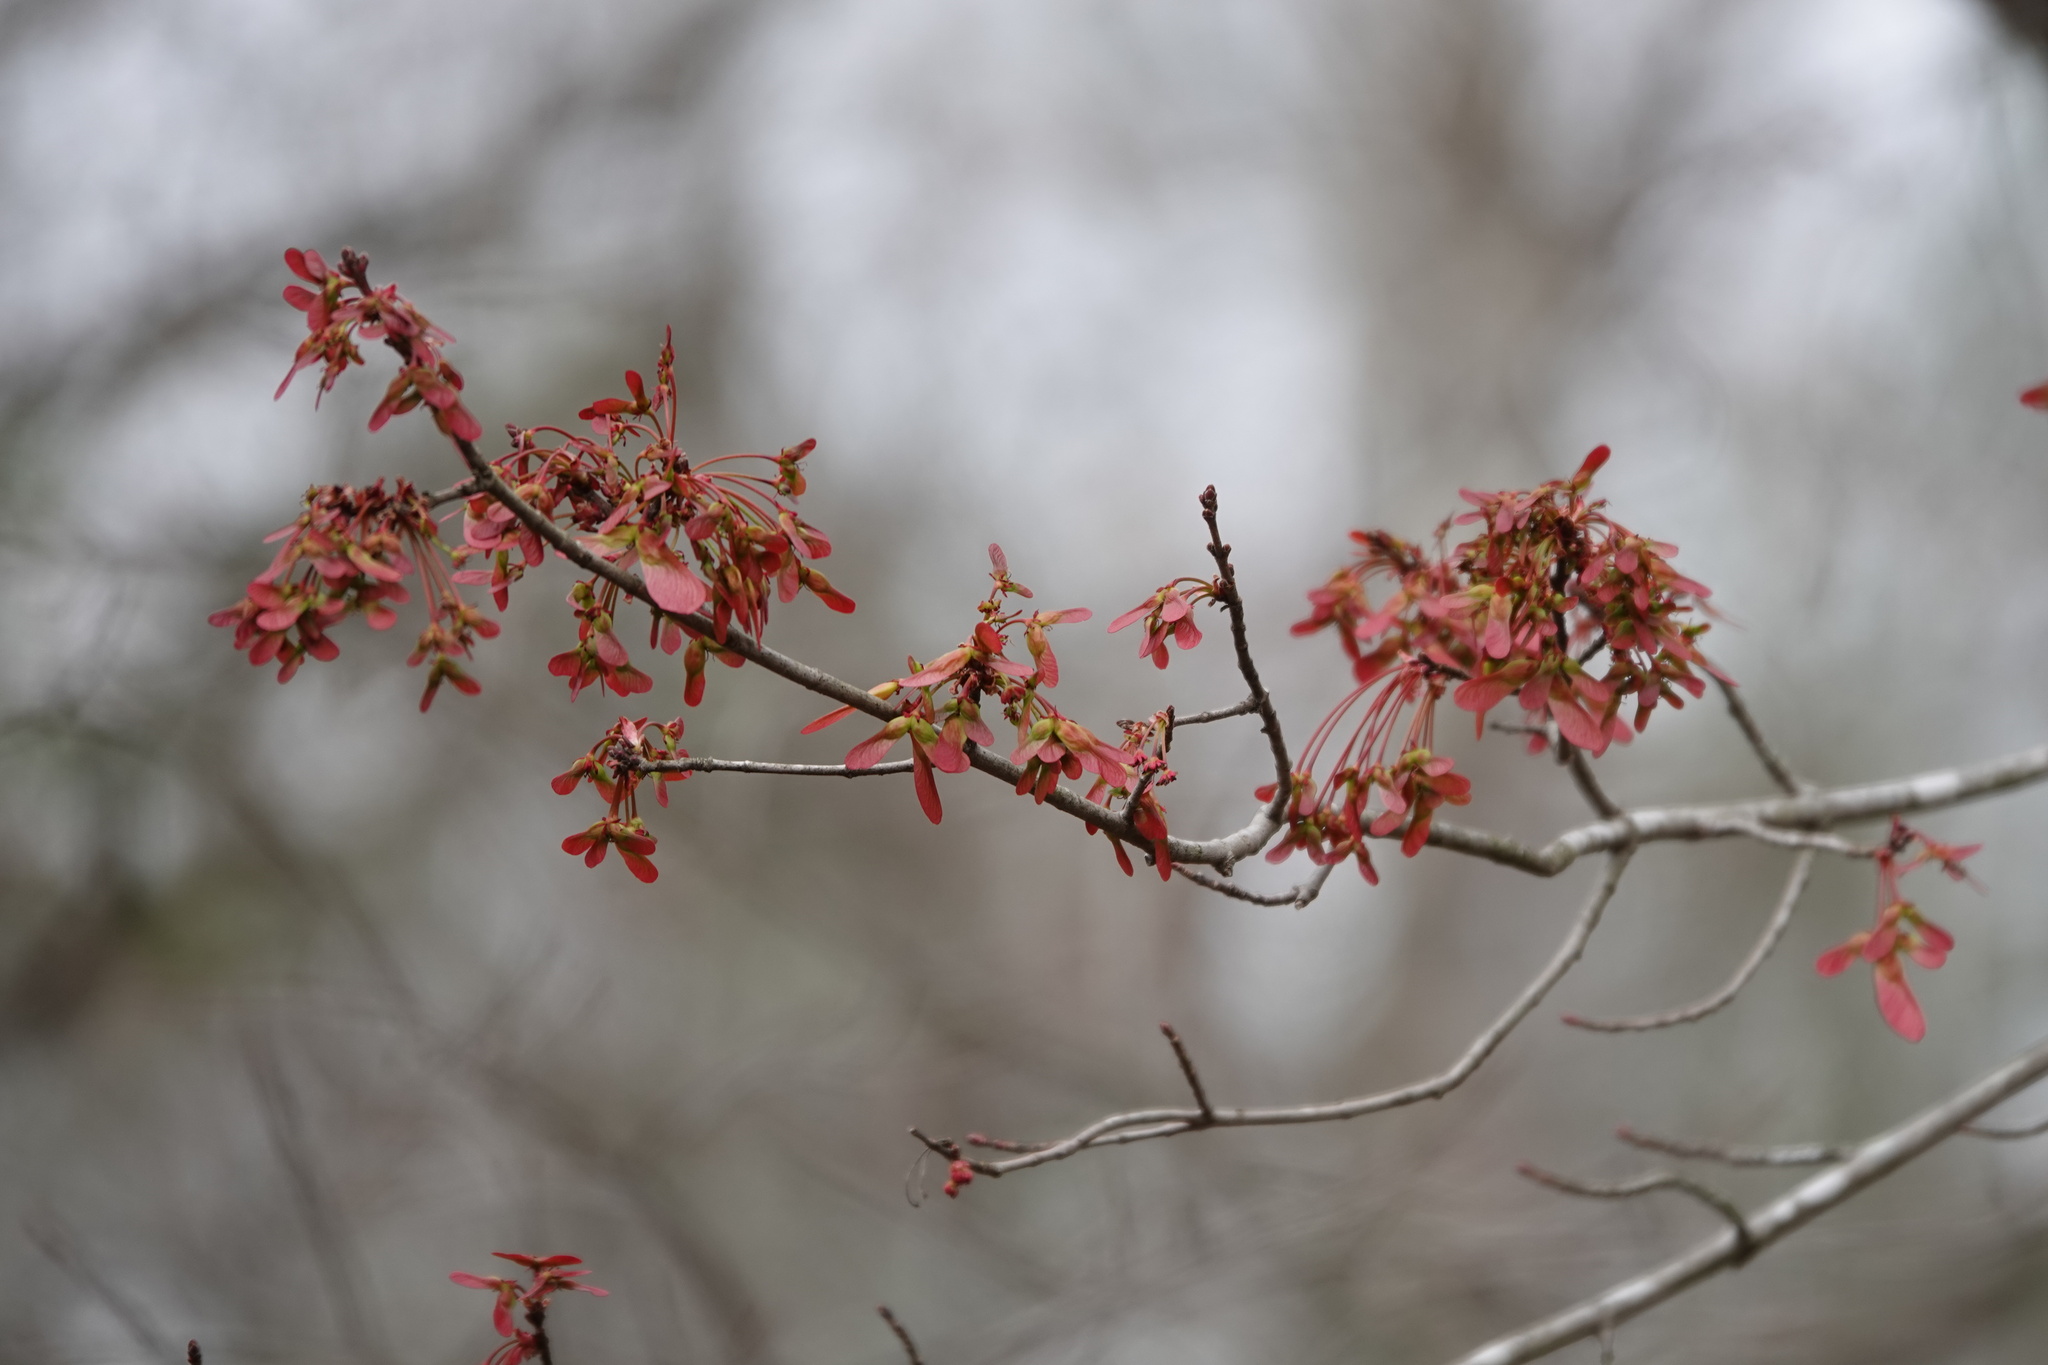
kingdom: Plantae
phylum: Tracheophyta
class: Magnoliopsida
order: Sapindales
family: Sapindaceae
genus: Acer
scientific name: Acer rubrum
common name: Red maple
